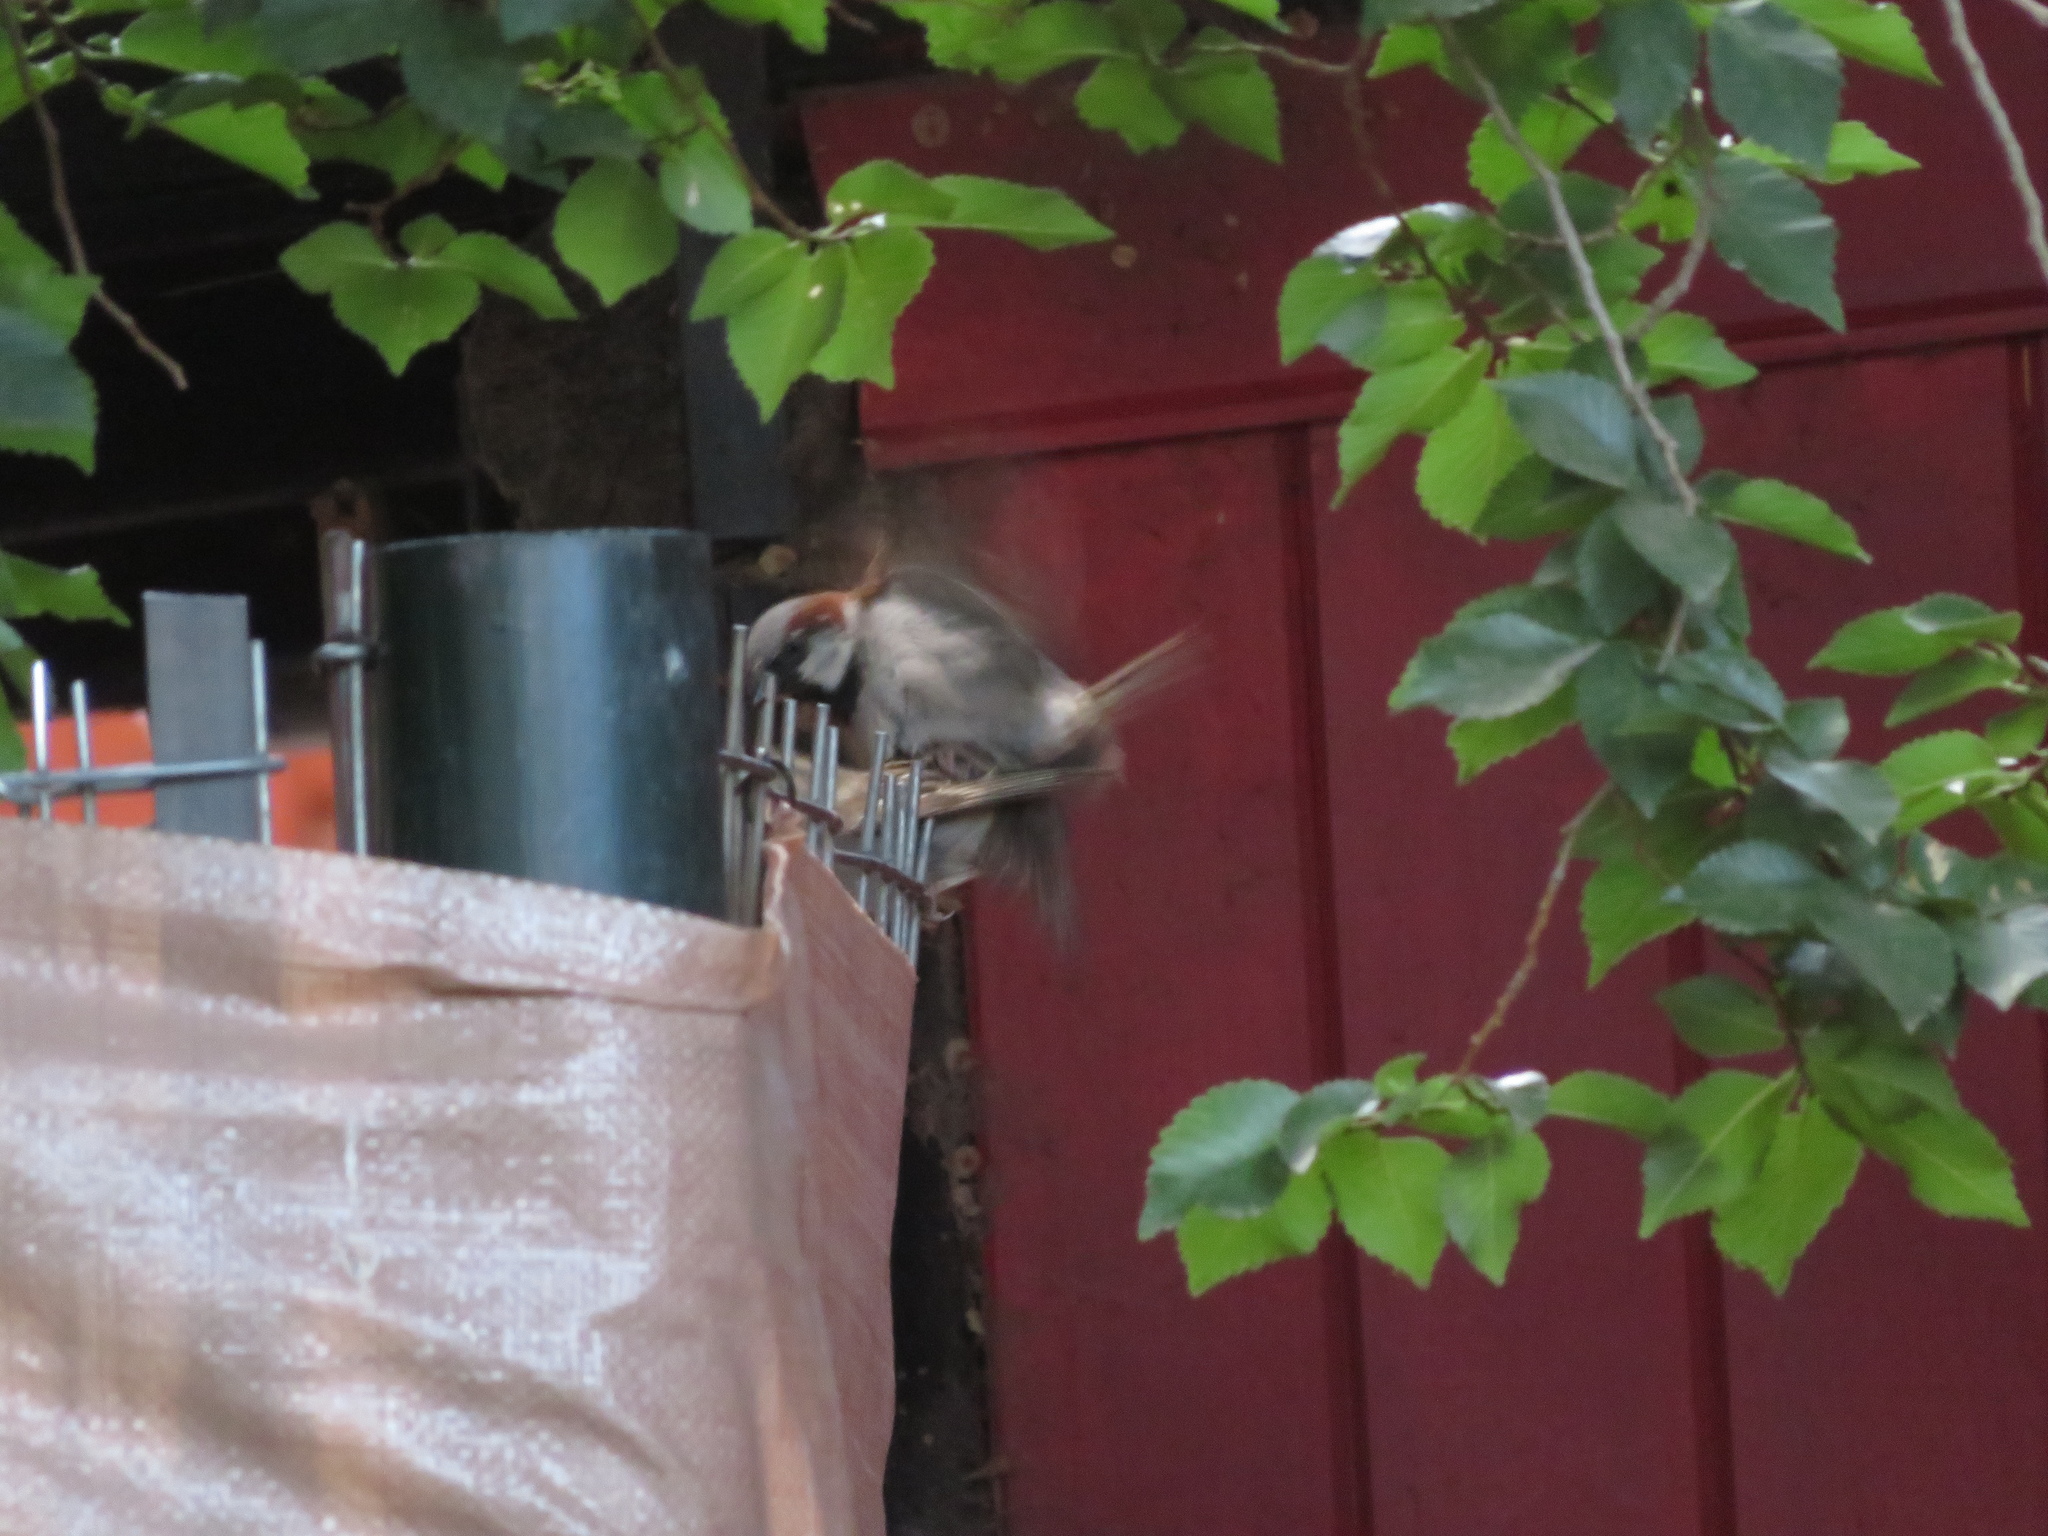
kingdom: Animalia
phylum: Chordata
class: Aves
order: Passeriformes
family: Passeridae
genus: Passer
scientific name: Passer domesticus
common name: House sparrow
